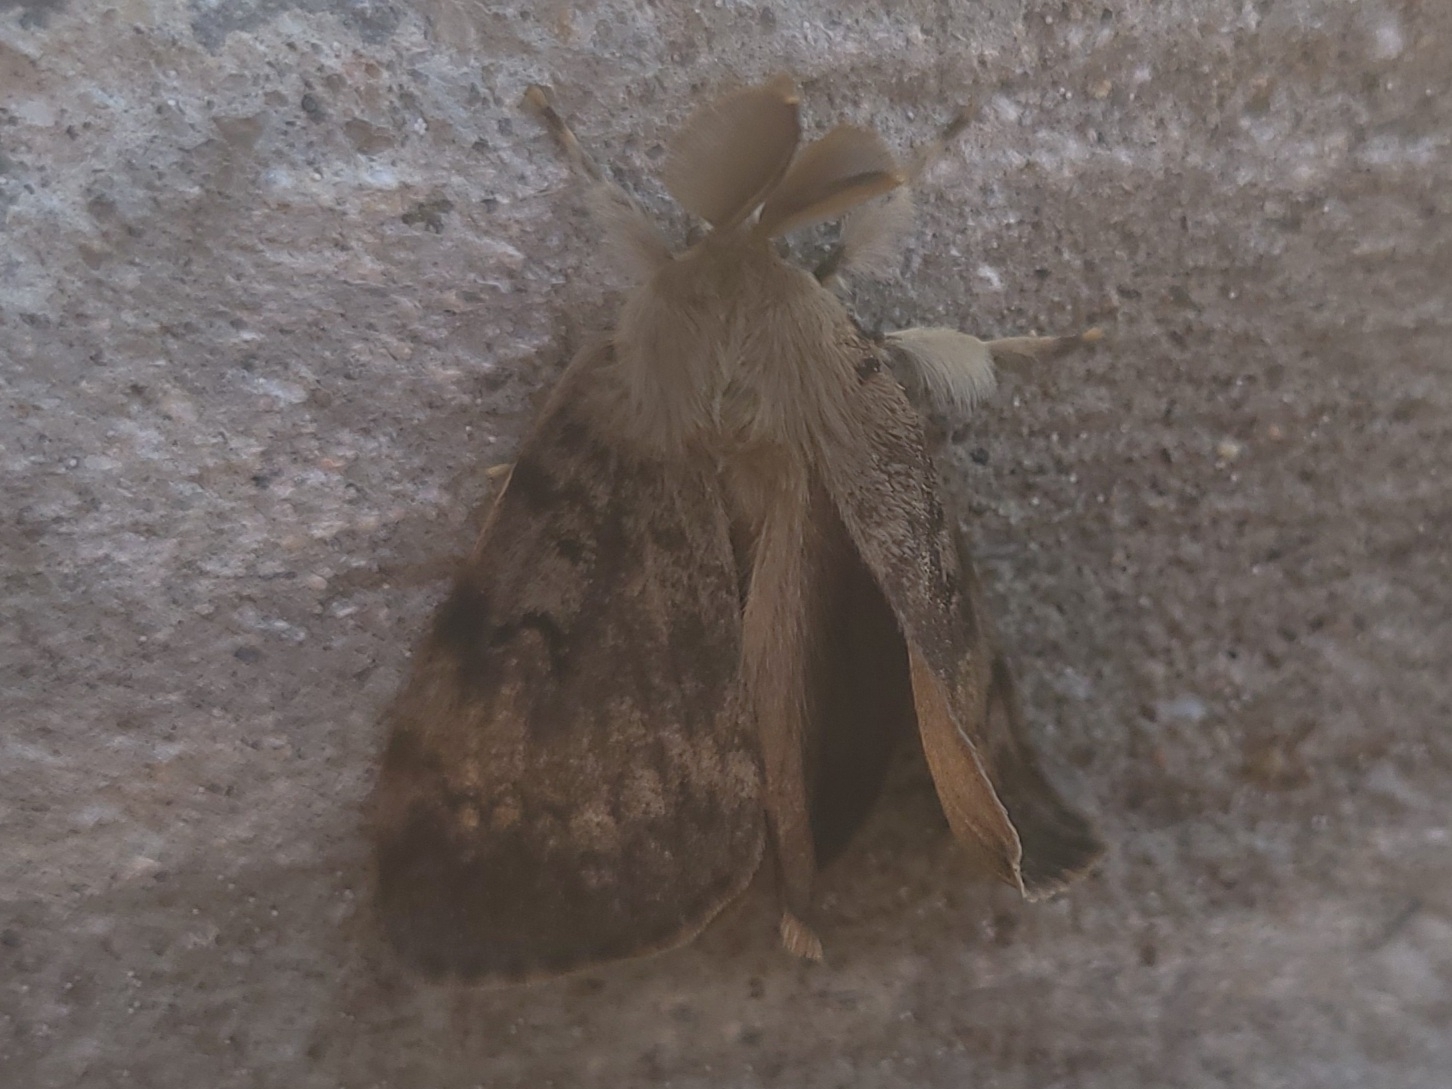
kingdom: Animalia
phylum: Arthropoda
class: Insecta
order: Lepidoptera
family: Erebidae
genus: Lymantria
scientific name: Lymantria dispar
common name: Gypsy moth
